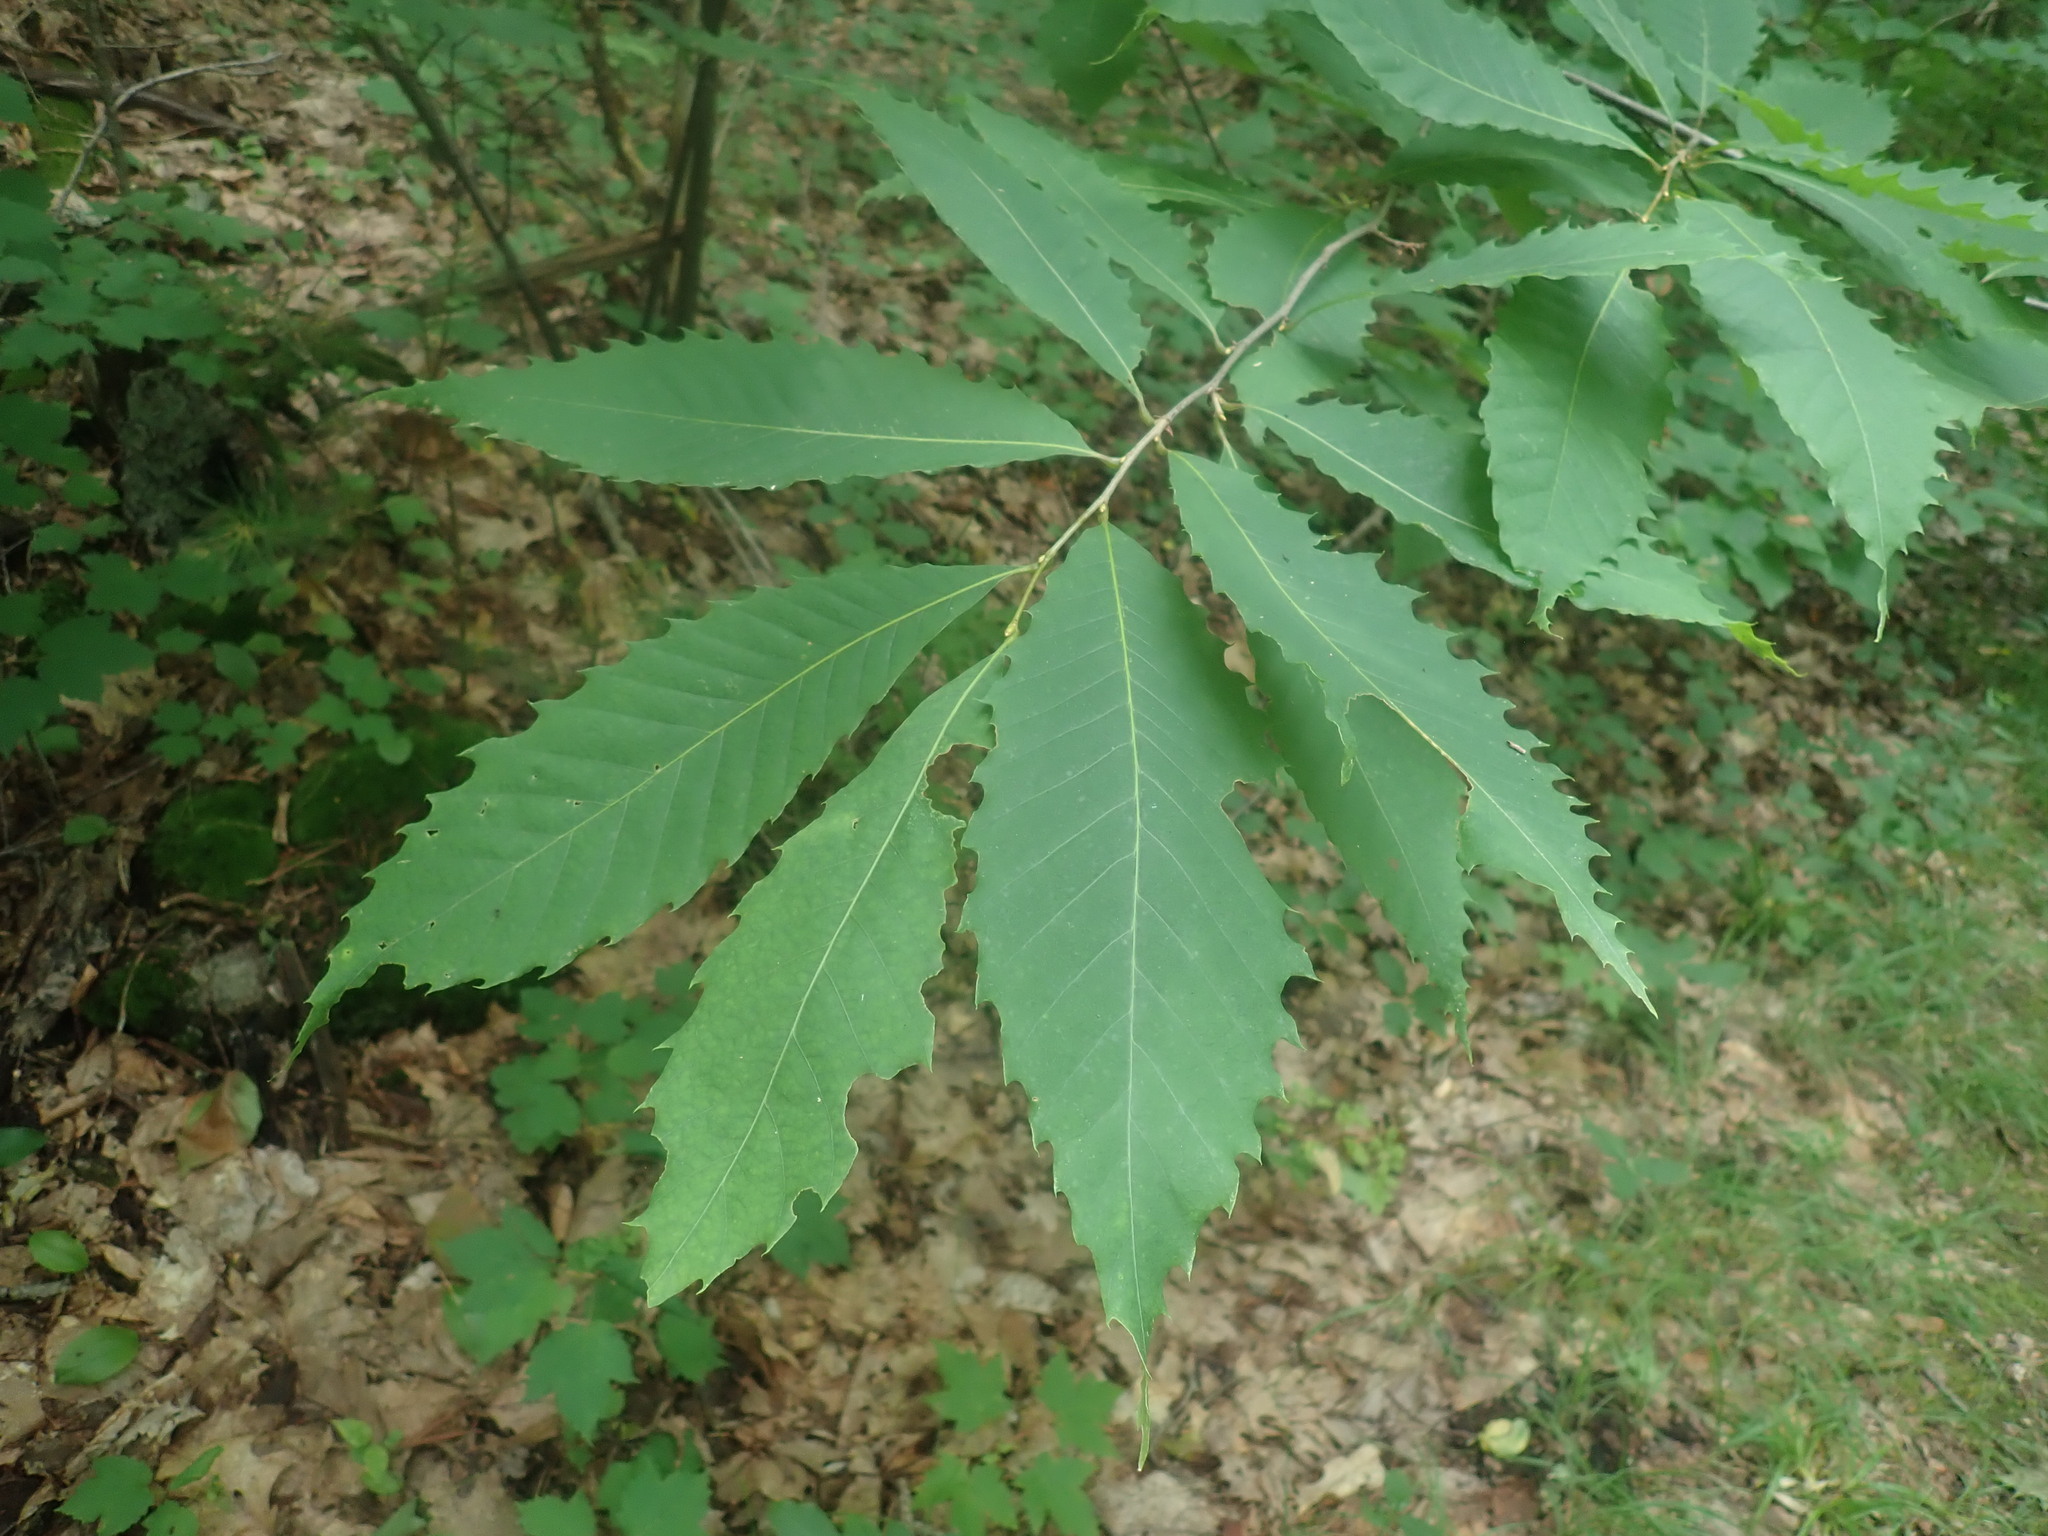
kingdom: Plantae
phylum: Tracheophyta
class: Magnoliopsida
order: Fagales
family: Fagaceae
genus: Castanea
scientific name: Castanea dentata
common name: American chestnut
